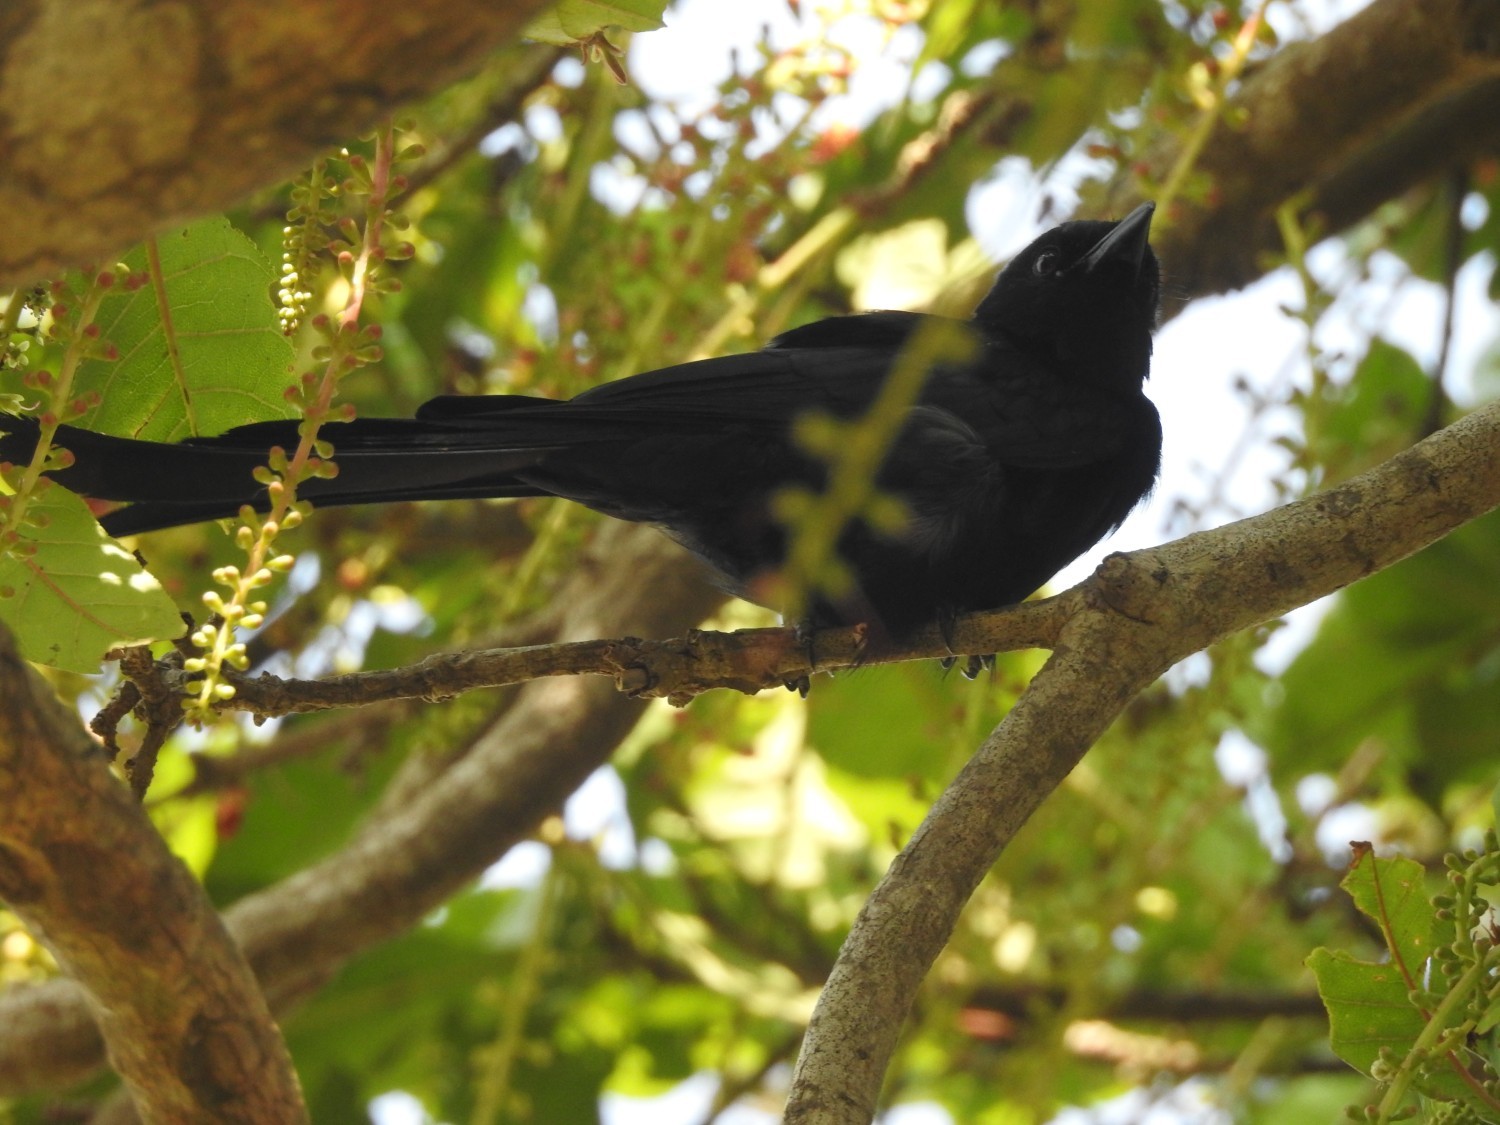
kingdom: Animalia
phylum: Chordata
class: Aves
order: Passeriformes
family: Dicruridae
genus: Dicrurus
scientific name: Dicrurus macrocercus
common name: Black drongo
